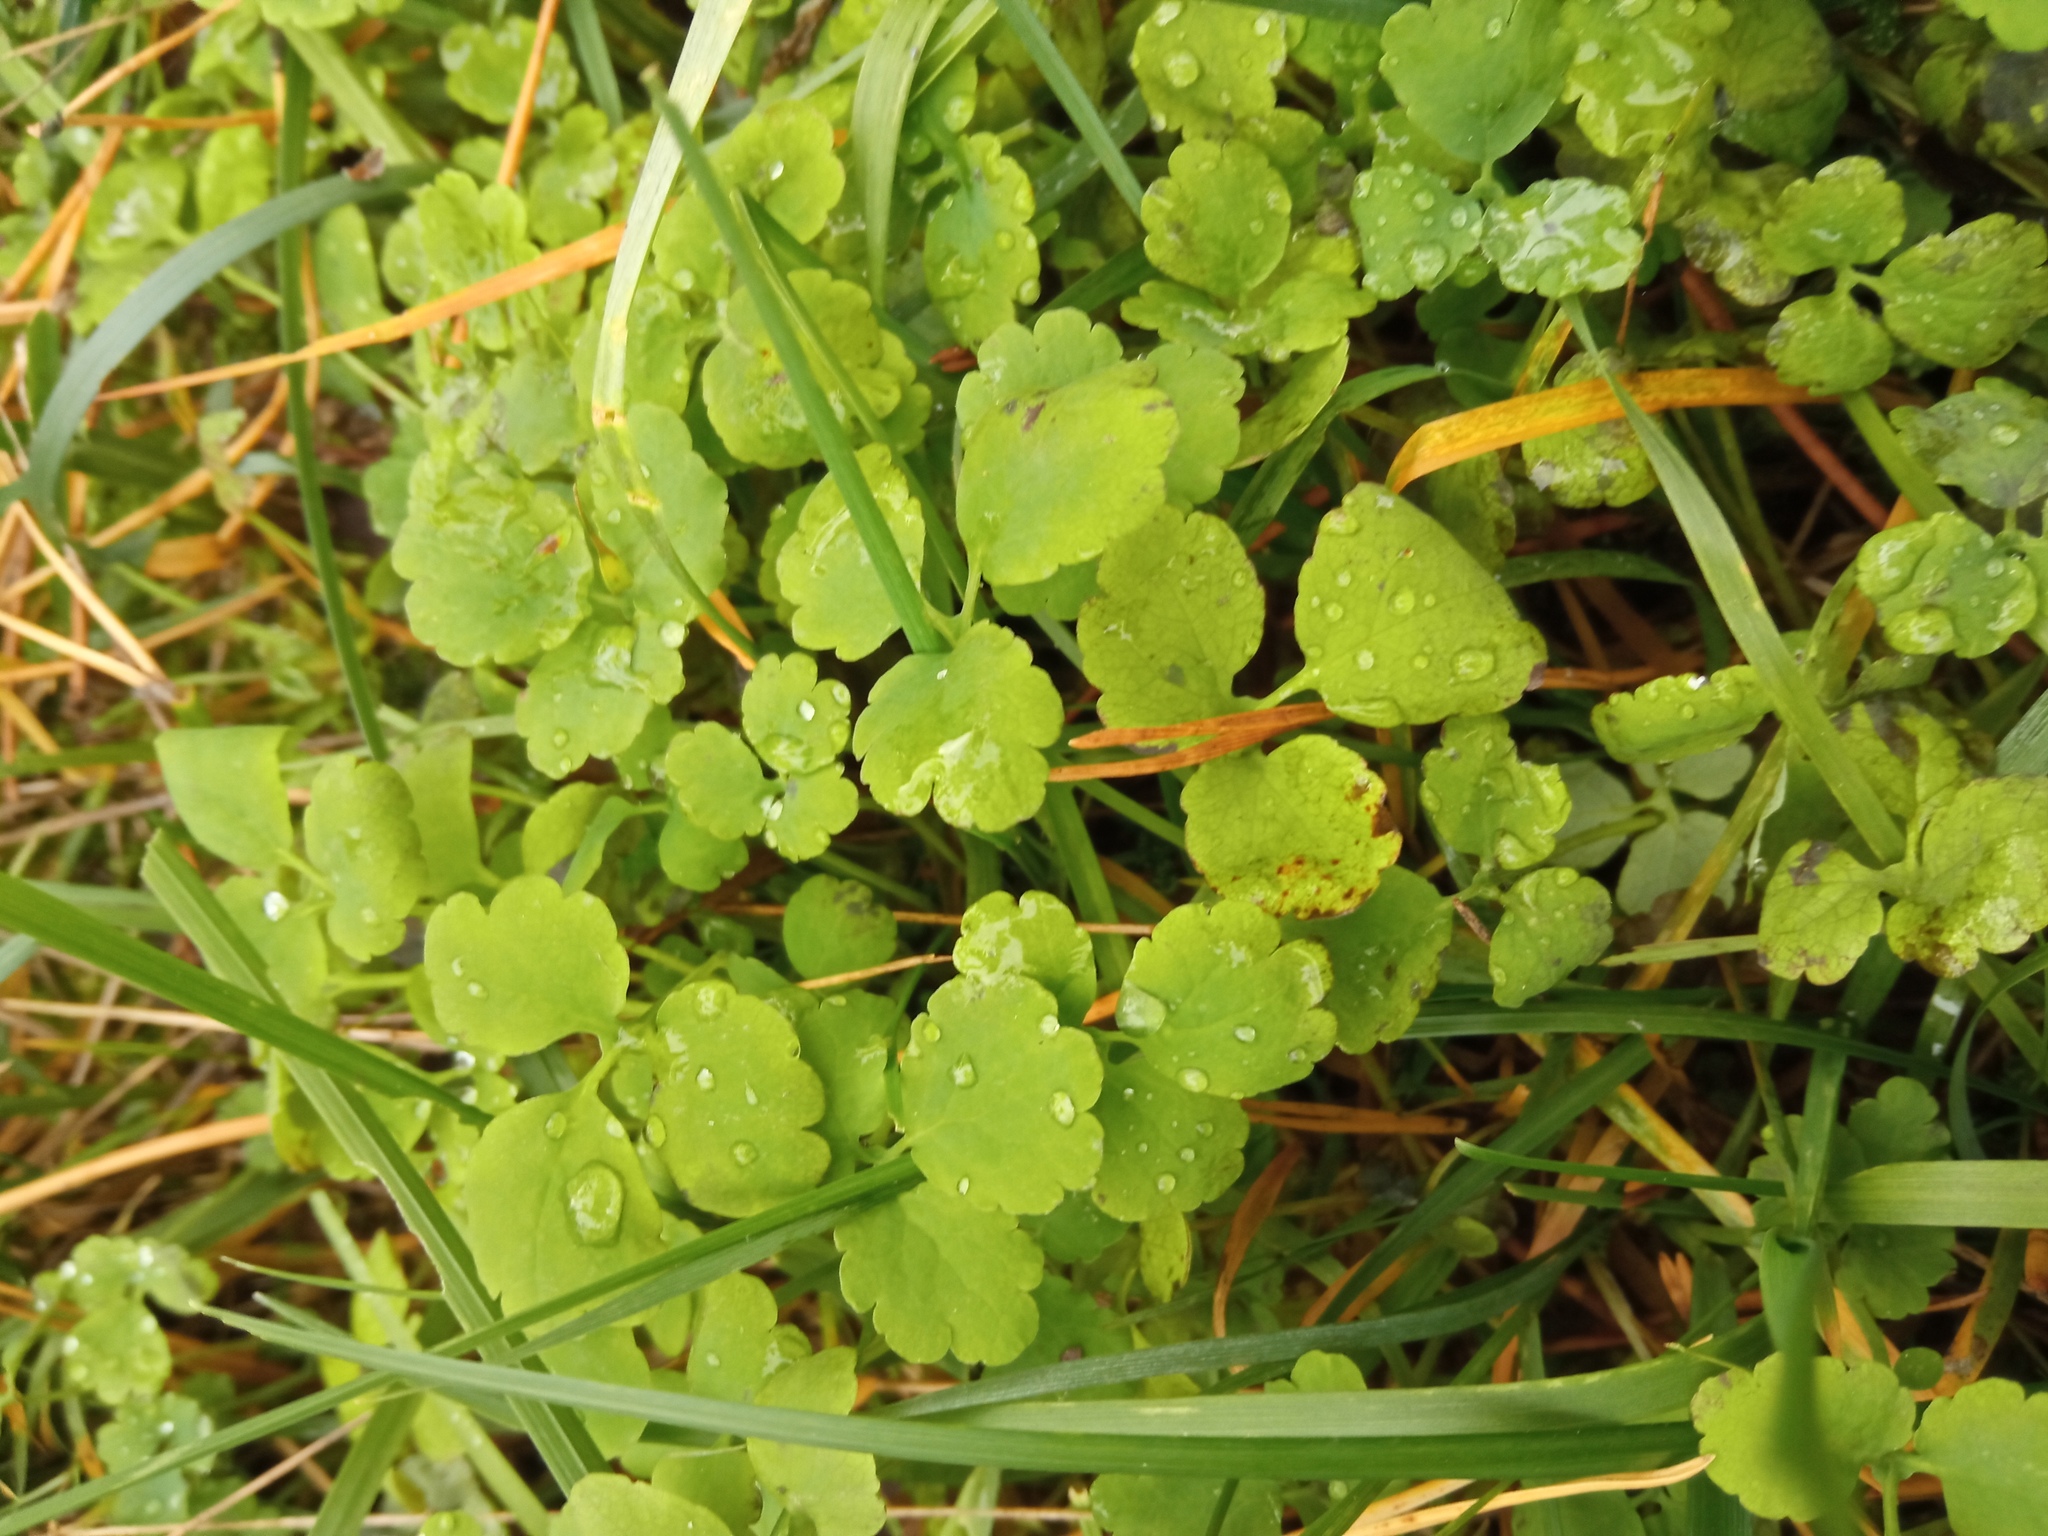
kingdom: Plantae
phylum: Tracheophyta
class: Magnoliopsida
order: Ranunculales
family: Papaveraceae
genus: Chelidonium
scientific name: Chelidonium majus
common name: Greater celandine
